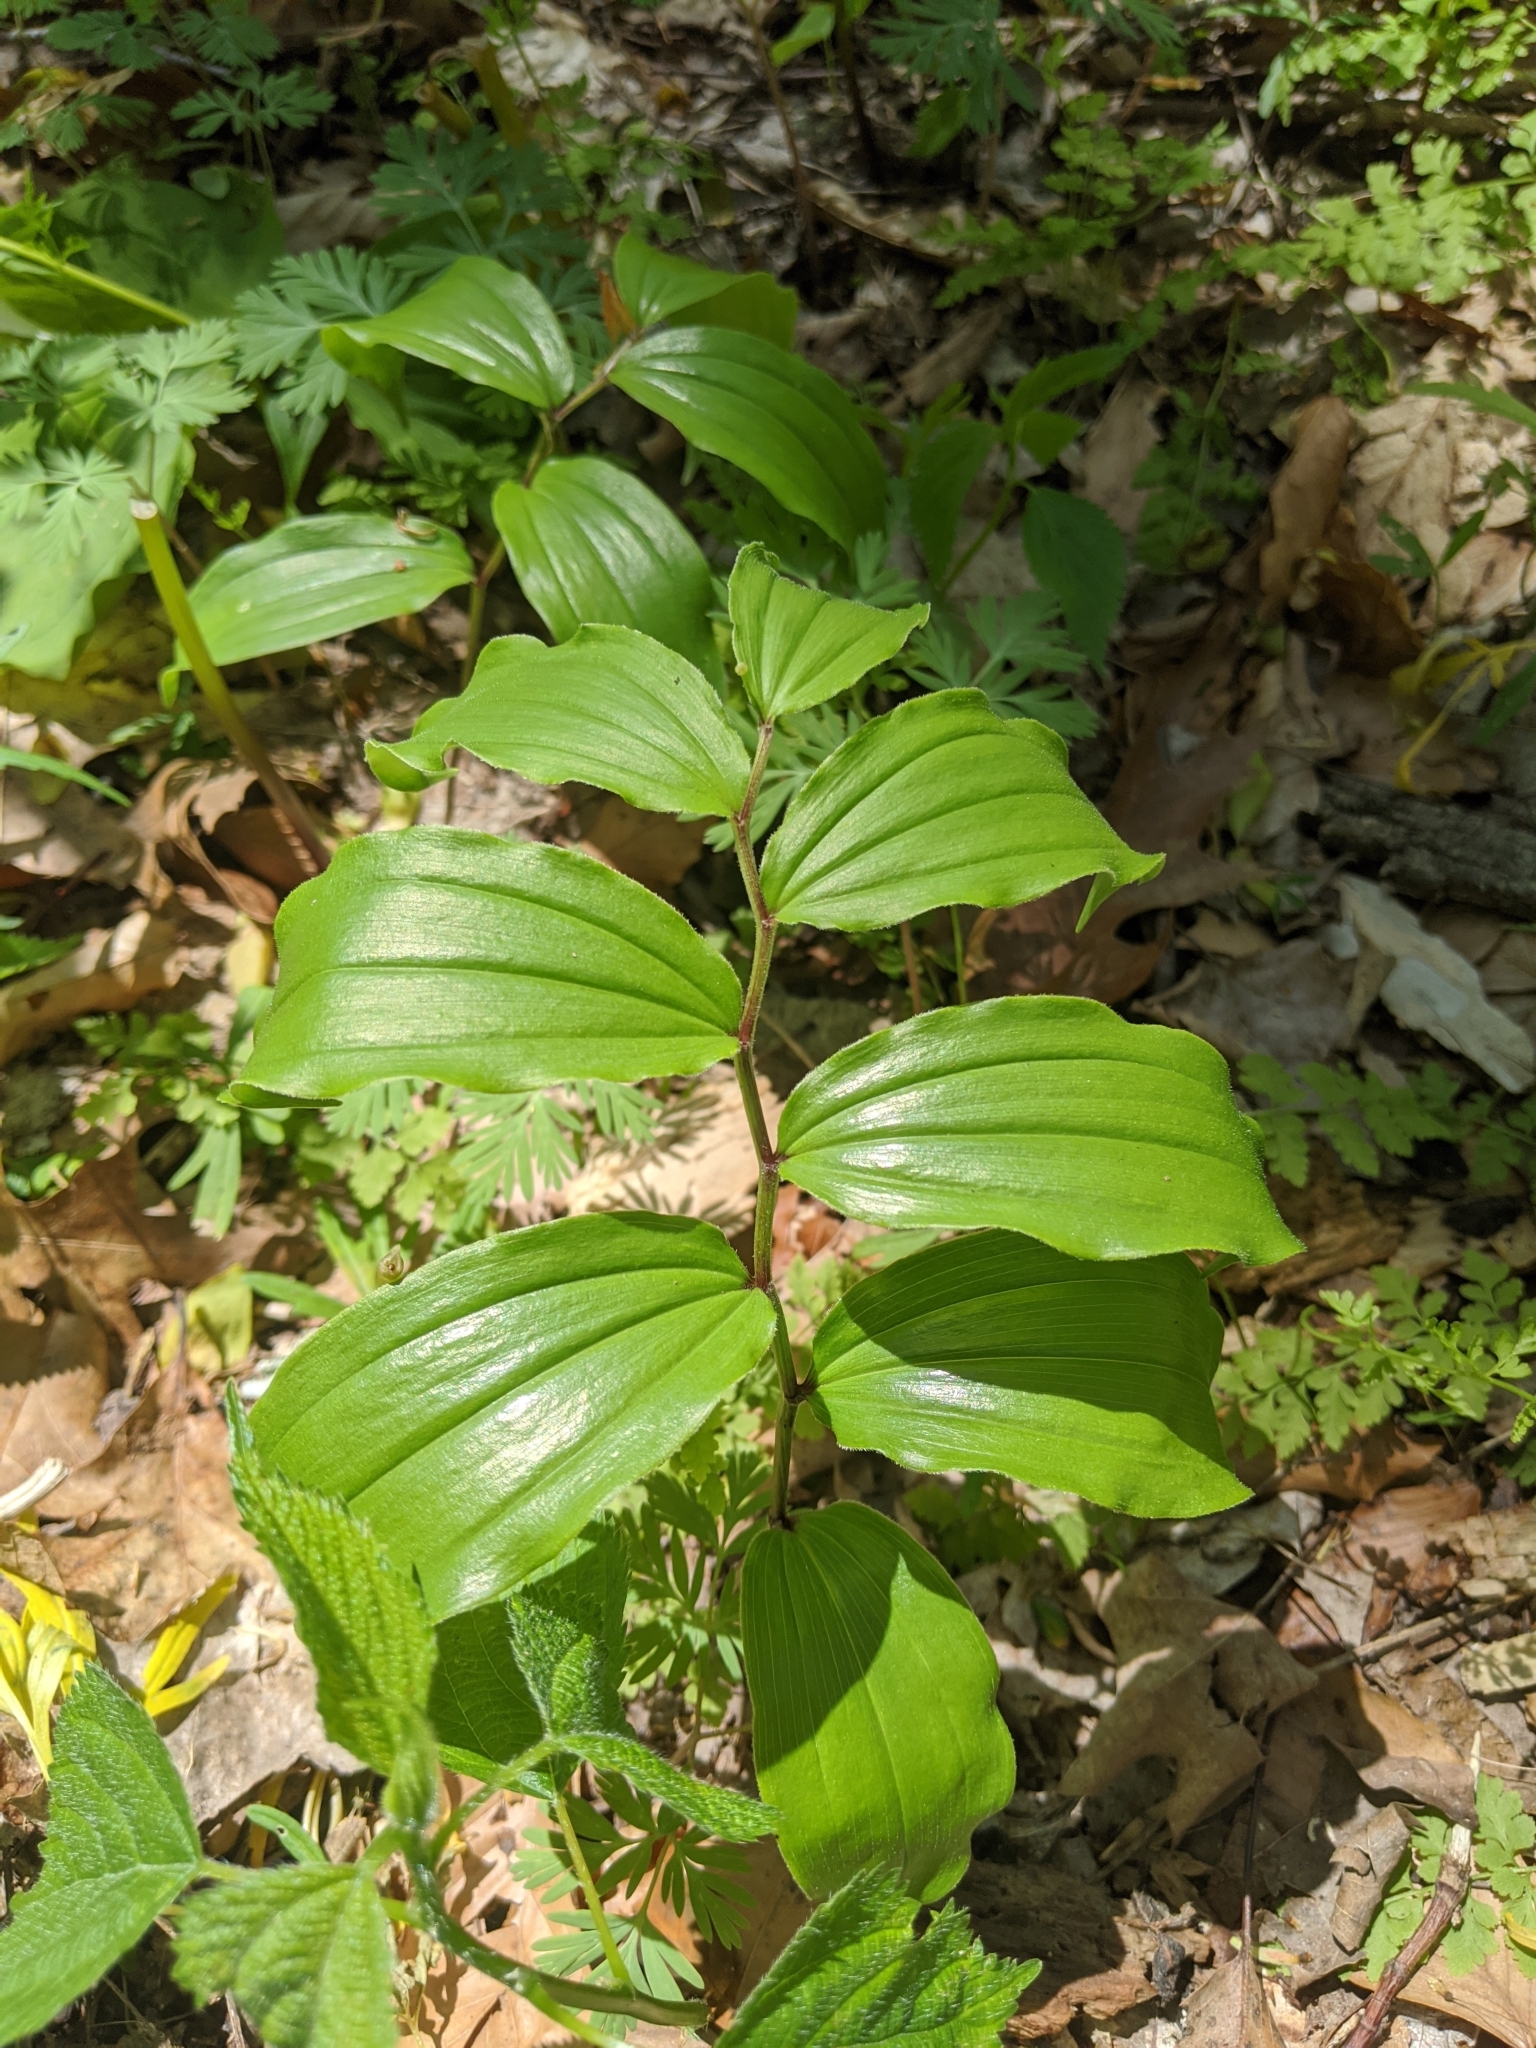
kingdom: Plantae
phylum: Tracheophyta
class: Liliopsida
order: Asparagales
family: Asparagaceae
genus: Maianthemum
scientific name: Maianthemum racemosum
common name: False spikenard
